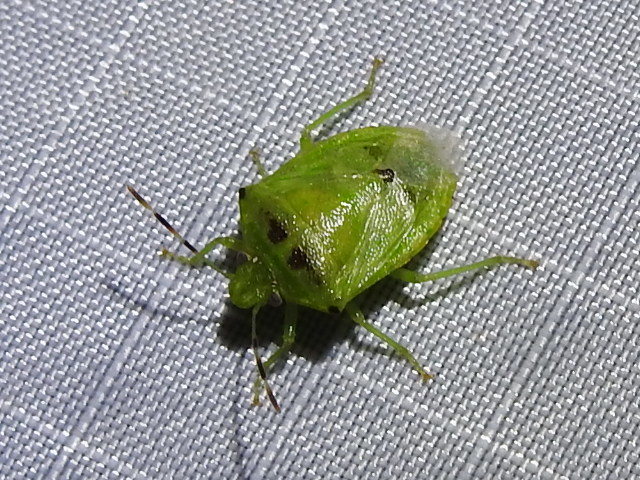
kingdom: Animalia
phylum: Arthropoda
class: Insecta
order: Hemiptera
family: Pentatomidae
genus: Thyanta
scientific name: Thyanta maculata
